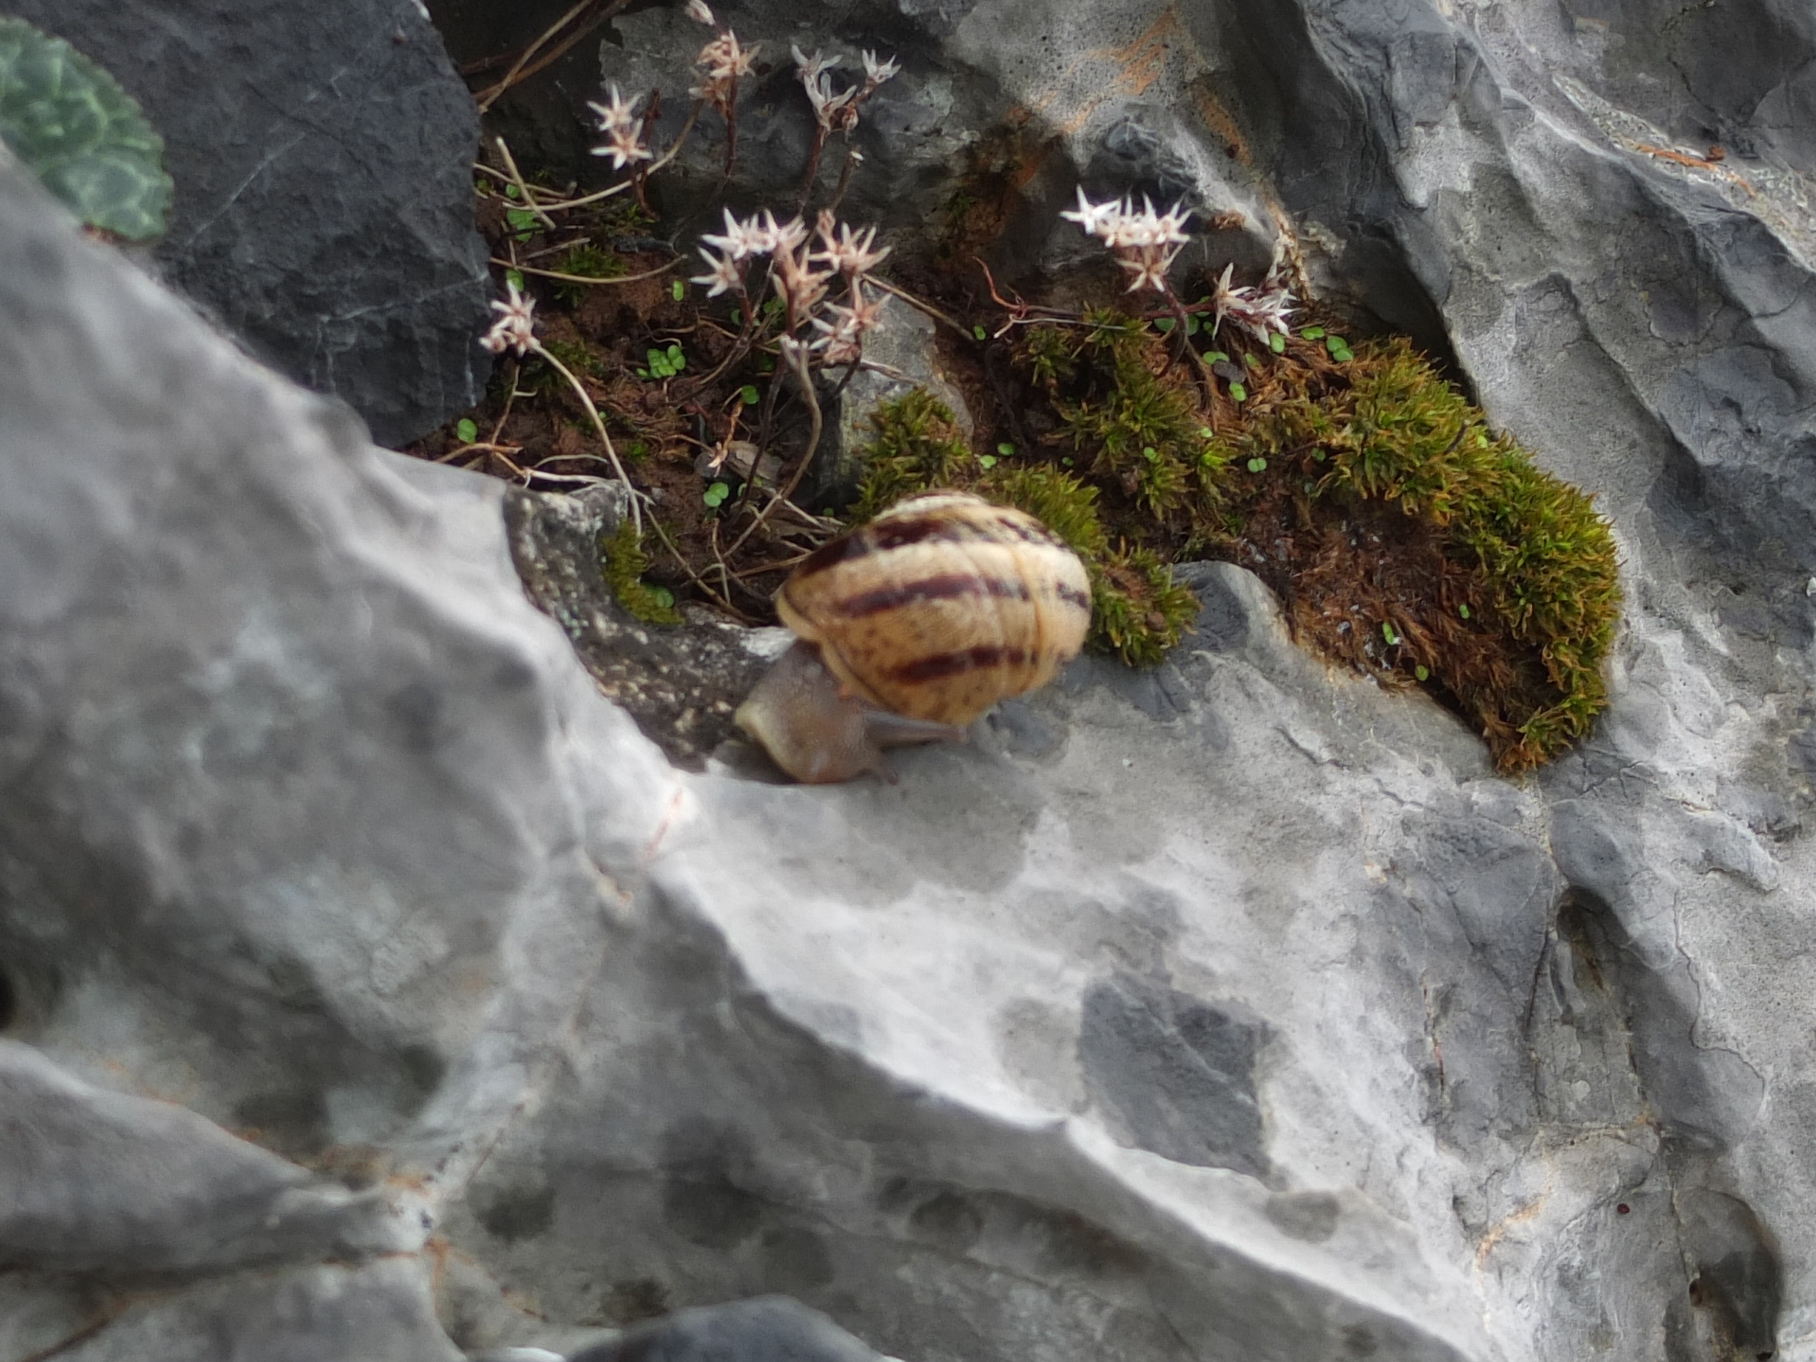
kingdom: Animalia
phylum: Mollusca
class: Gastropoda
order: Stylommatophora
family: Helicidae
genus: Cornu
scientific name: Cornu aspersum
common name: Brown garden snail
